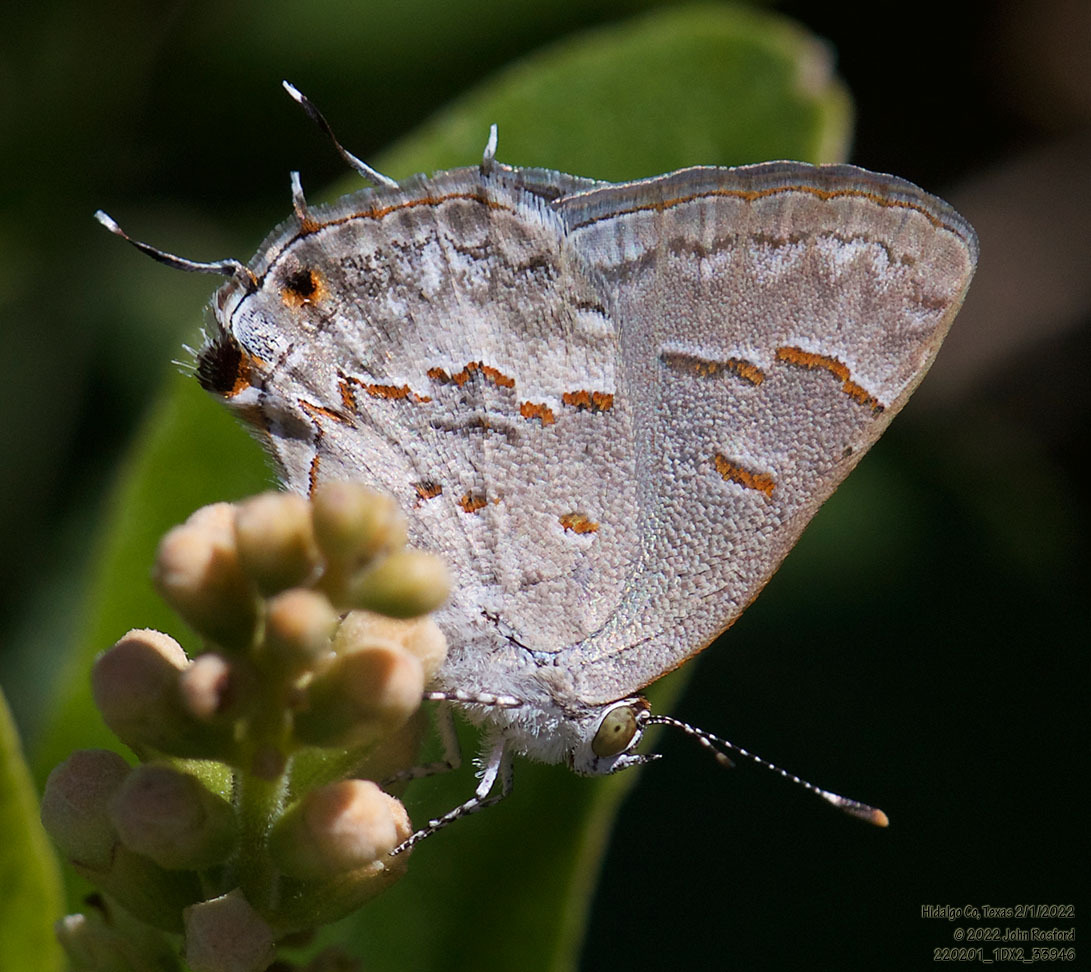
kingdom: Animalia
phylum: Arthropoda
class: Insecta
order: Lepidoptera
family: Lycaenidae
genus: Ministrymon
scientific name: Ministrymon clytie
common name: Clytie ministreak
